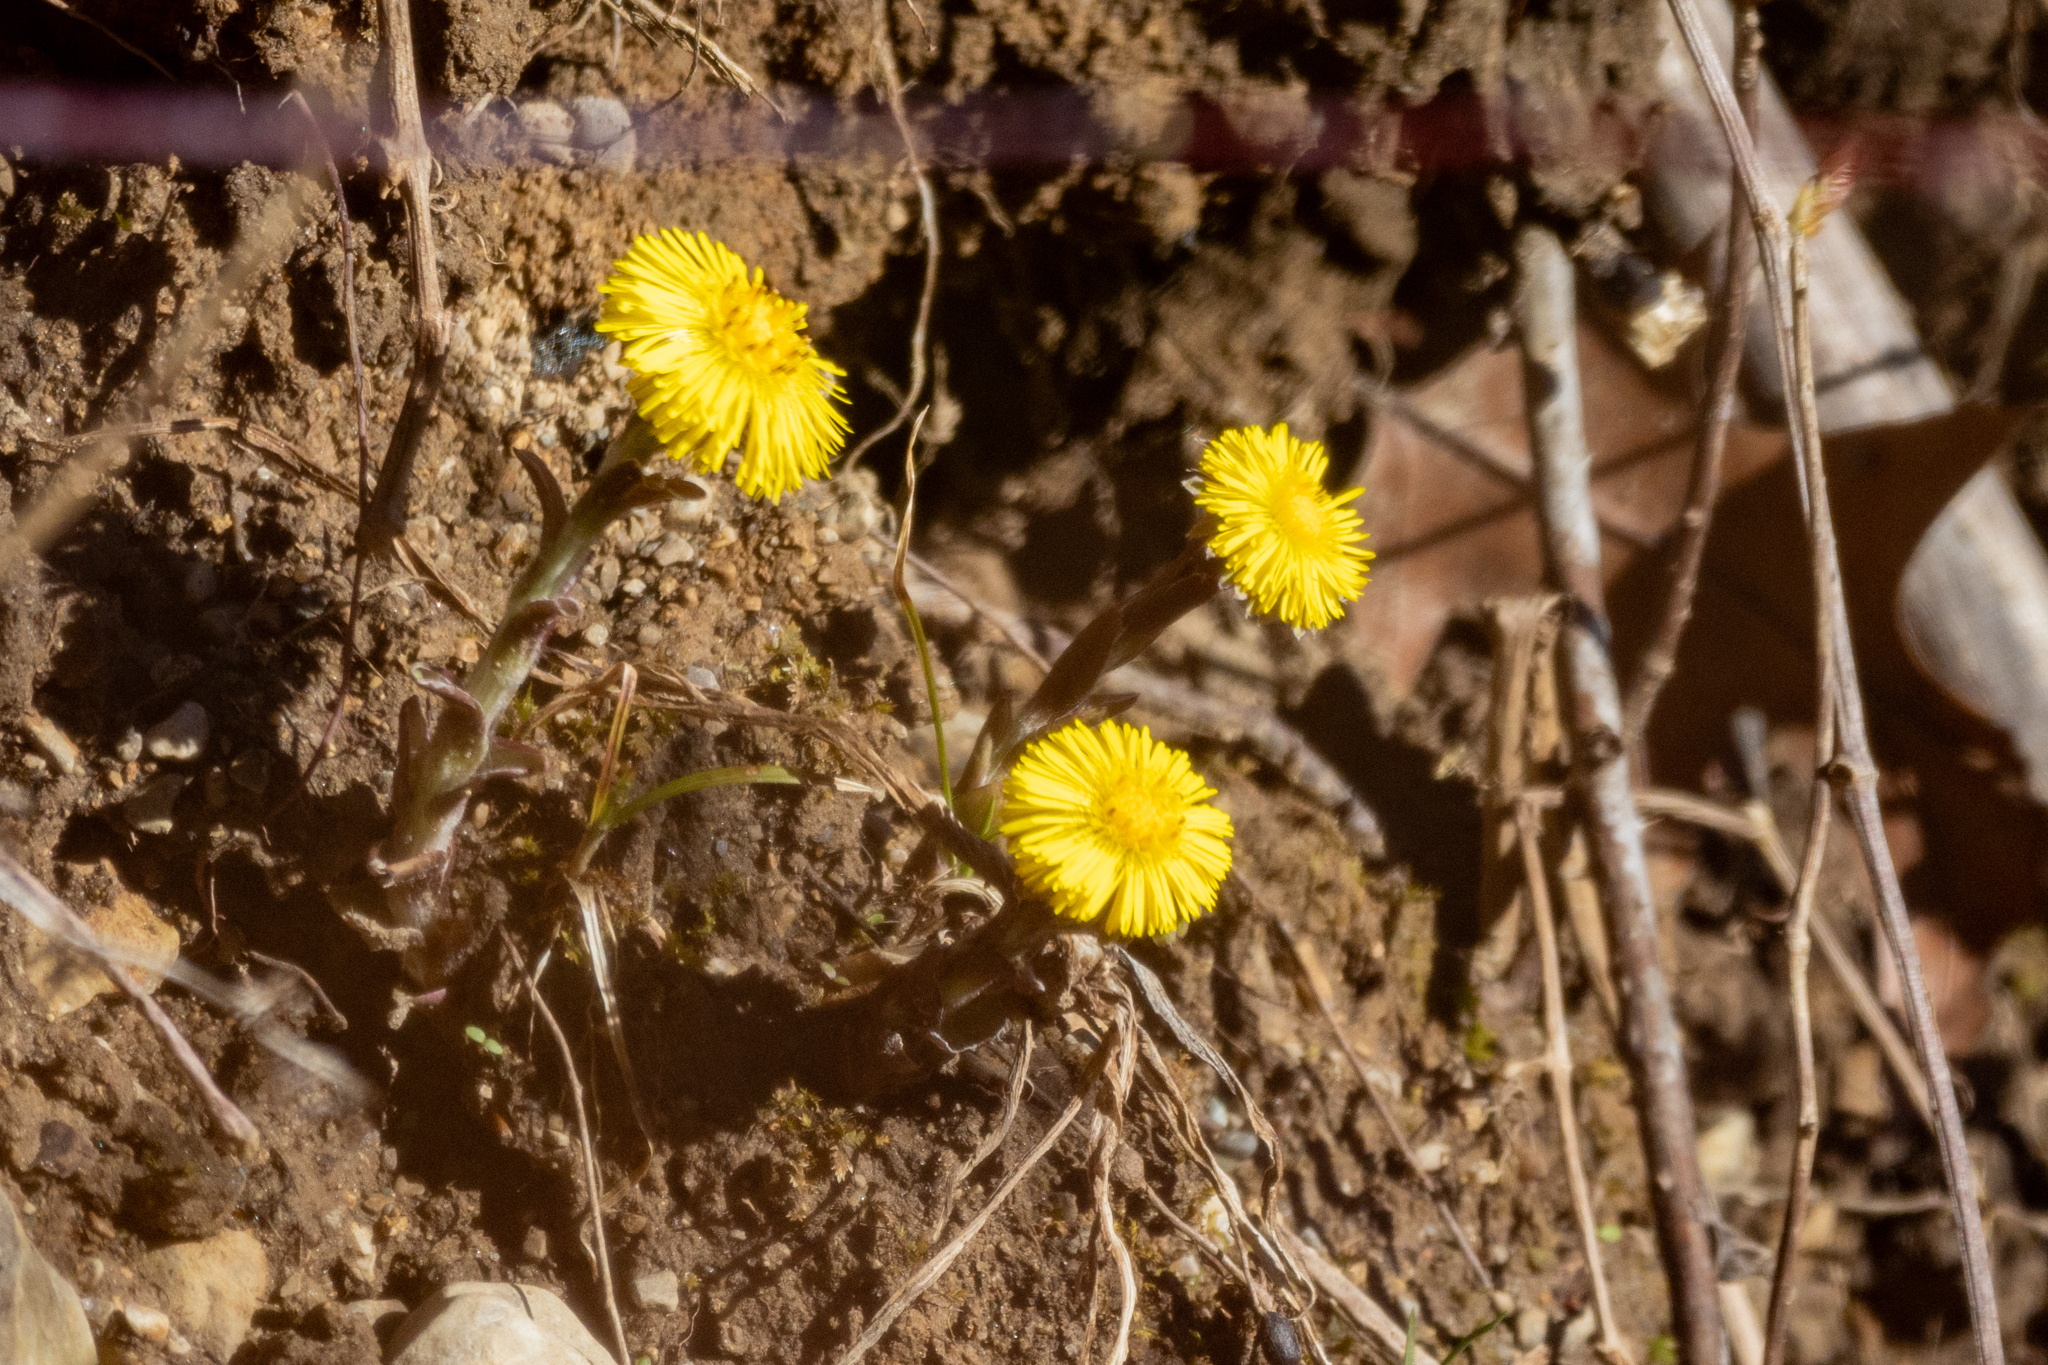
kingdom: Plantae
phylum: Tracheophyta
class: Magnoliopsida
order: Asterales
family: Asteraceae
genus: Tussilago
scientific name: Tussilago farfara
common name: Coltsfoot
